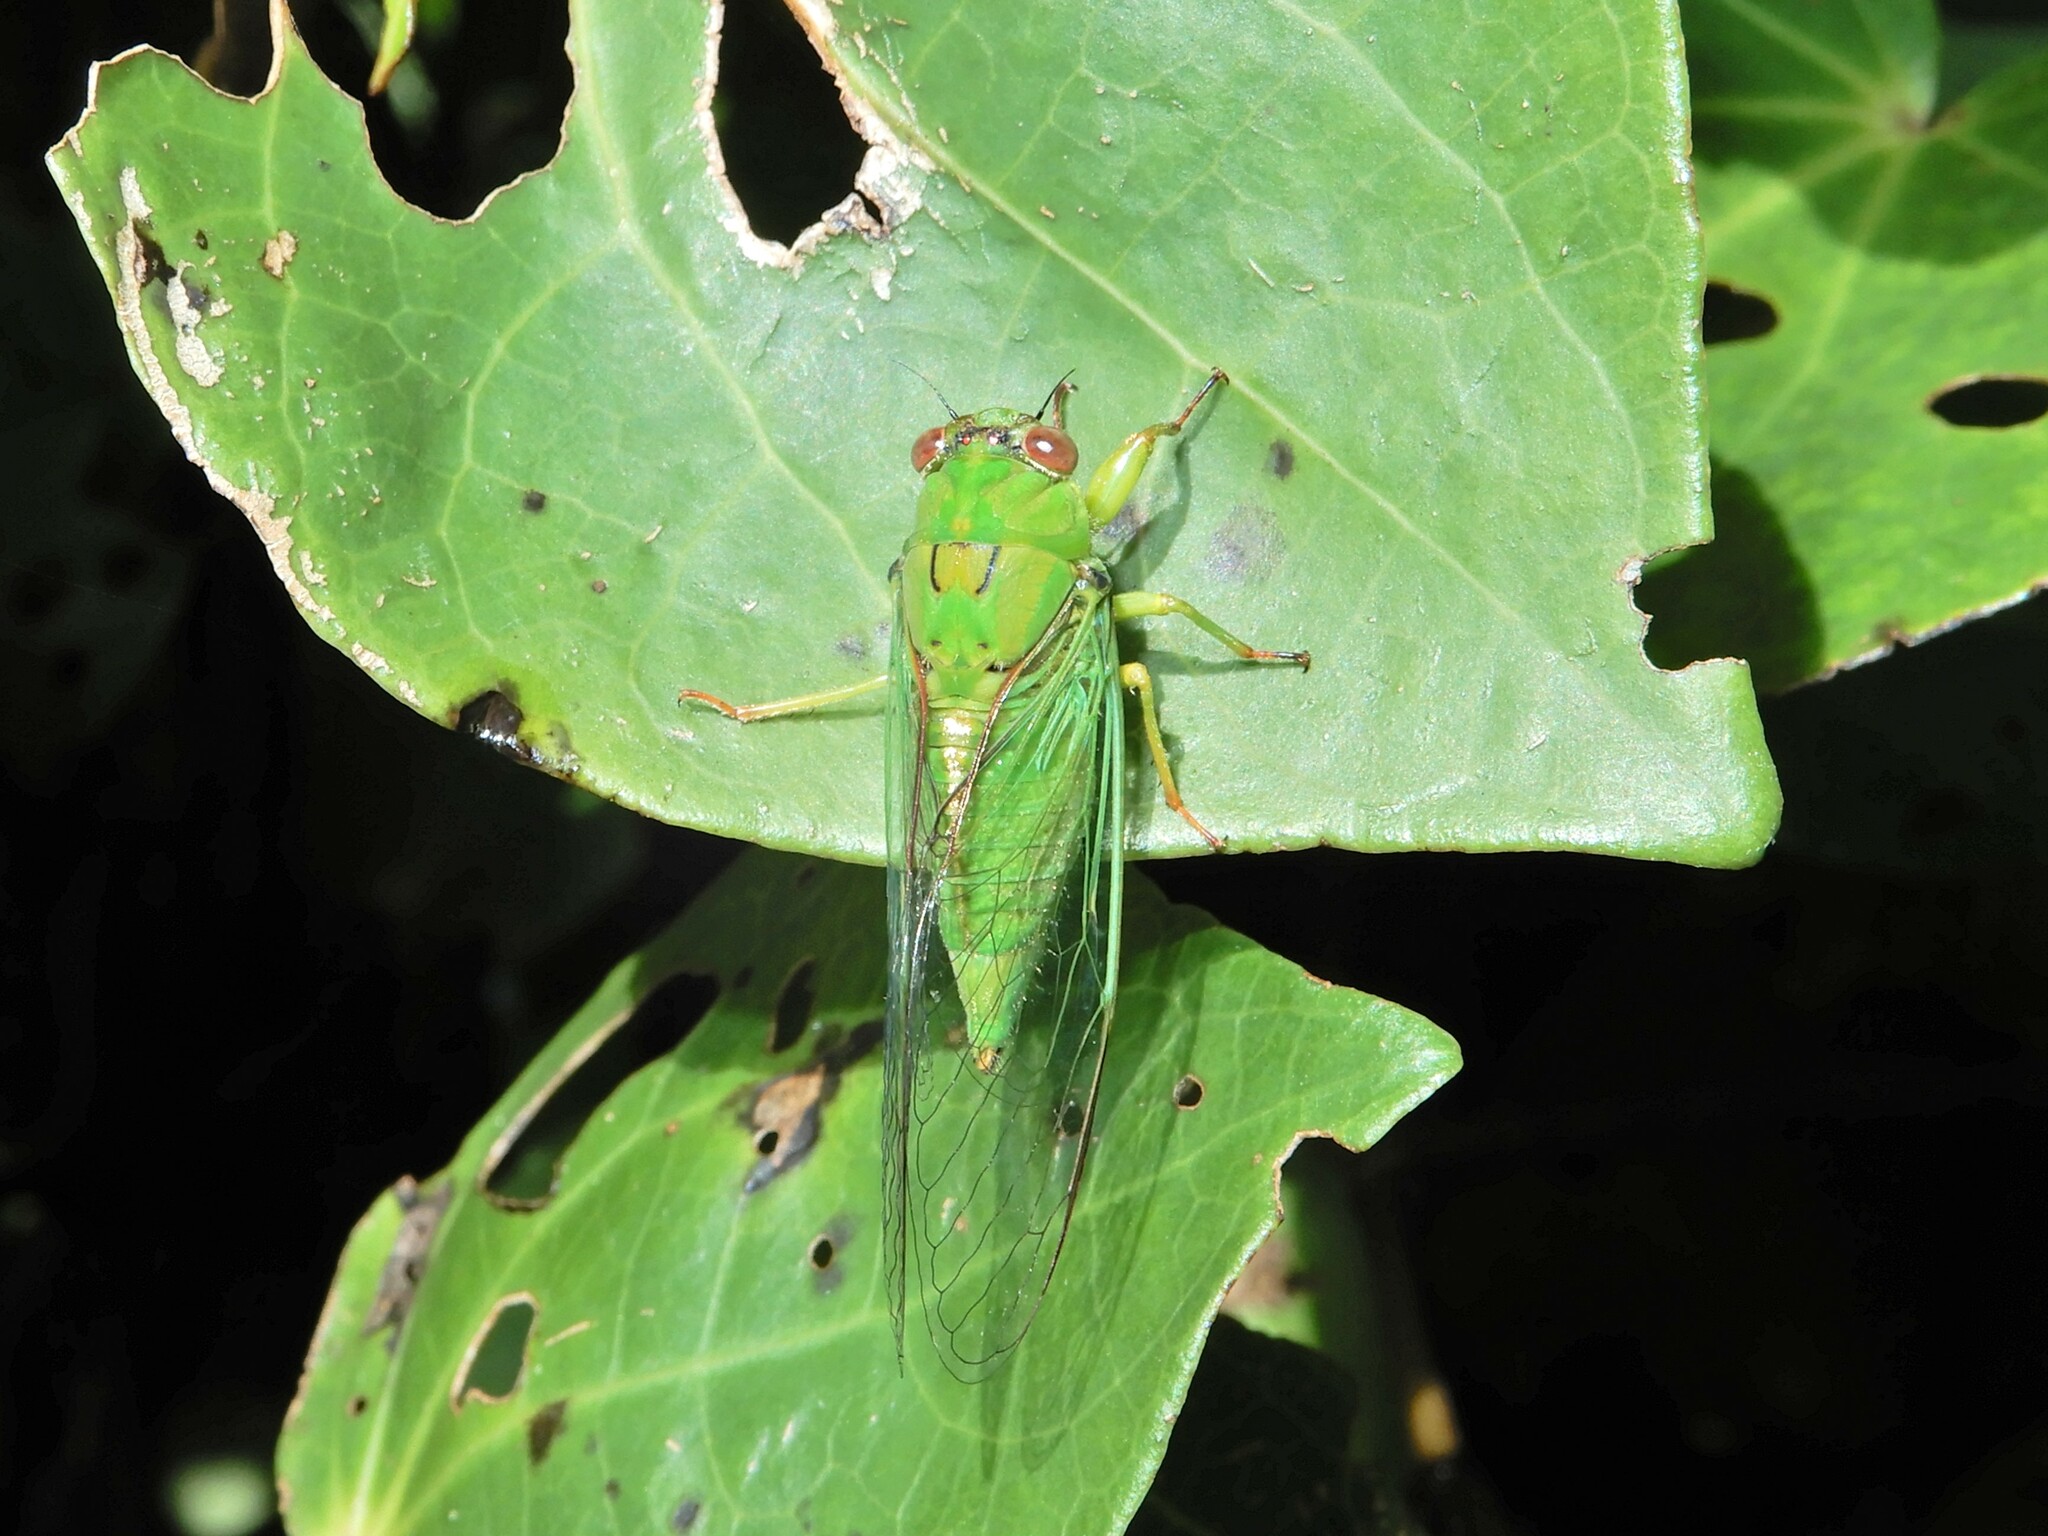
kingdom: Animalia
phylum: Arthropoda
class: Insecta
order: Hemiptera
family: Cicadidae
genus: Kikihia
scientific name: Kikihia ochrina
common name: April green cicada
